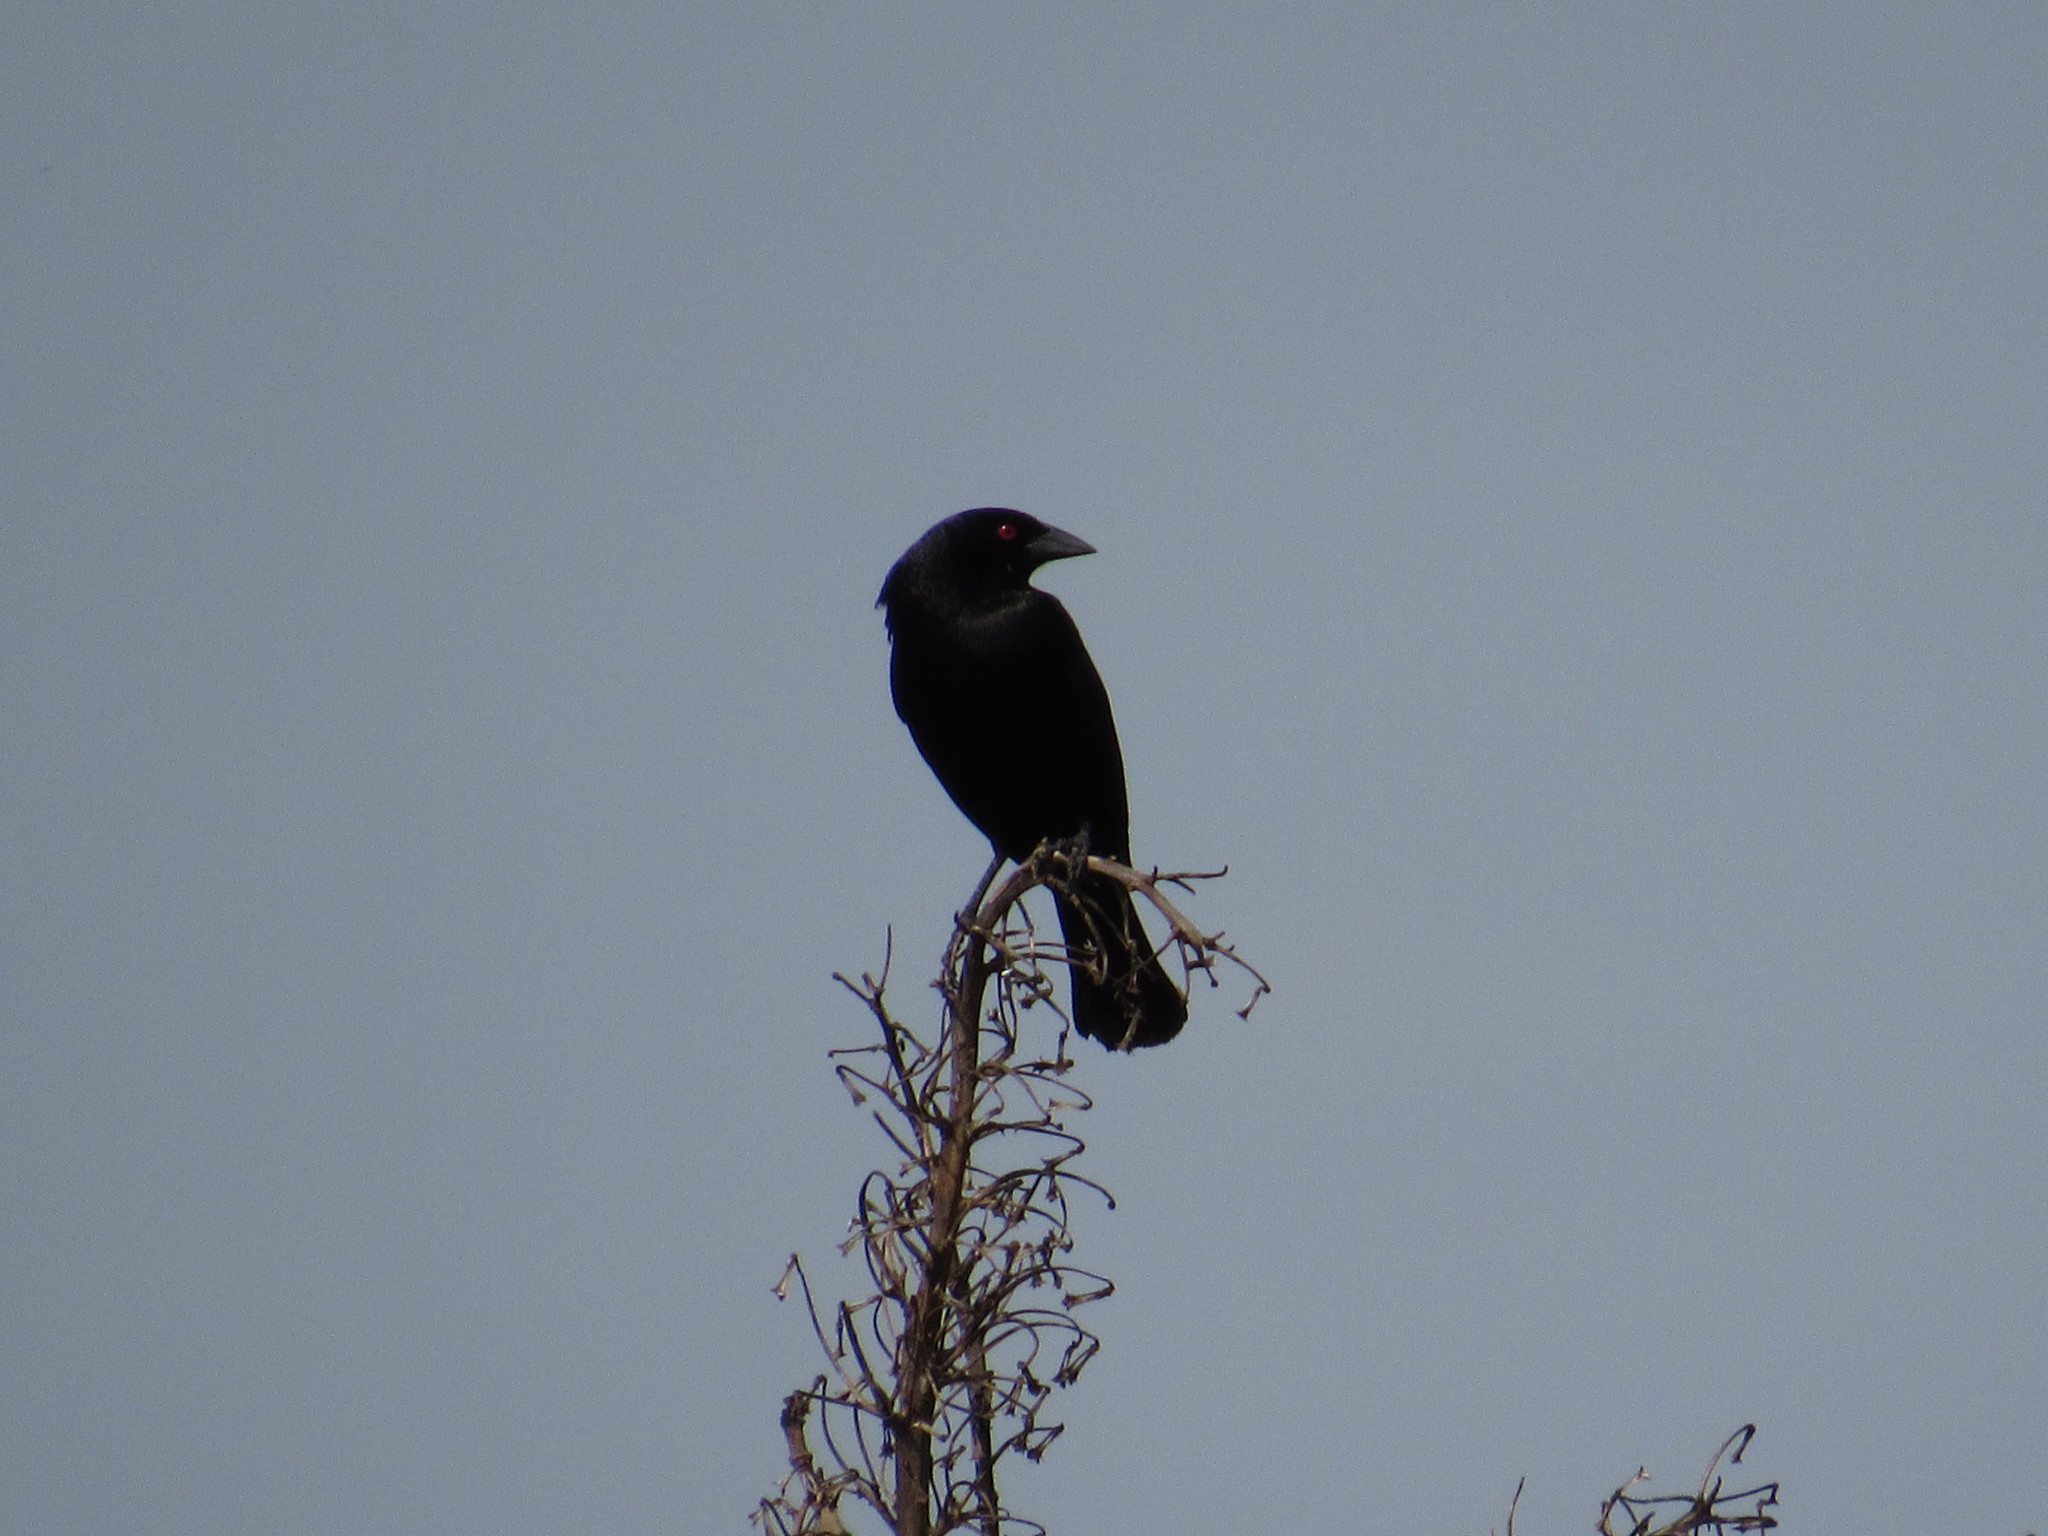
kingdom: Animalia
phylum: Chordata
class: Aves
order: Passeriformes
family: Icteridae
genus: Molothrus
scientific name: Molothrus aeneus
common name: Bronzed cowbird
